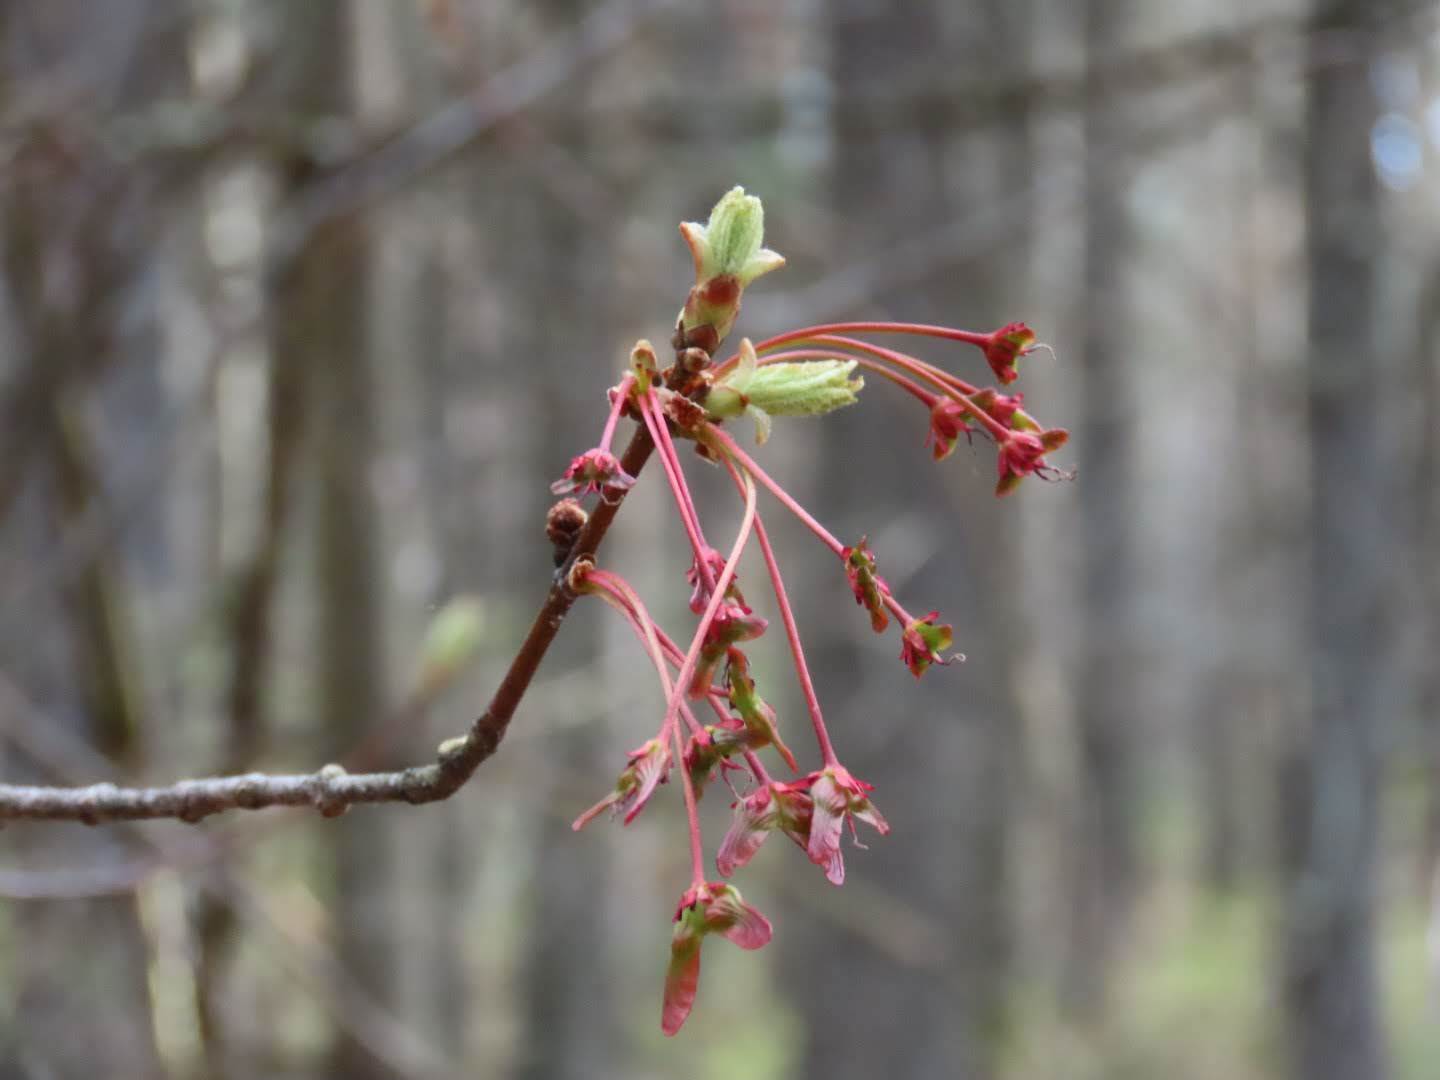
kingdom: Plantae
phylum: Tracheophyta
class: Magnoliopsida
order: Sapindales
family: Sapindaceae
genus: Acer
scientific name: Acer rubrum
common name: Red maple
